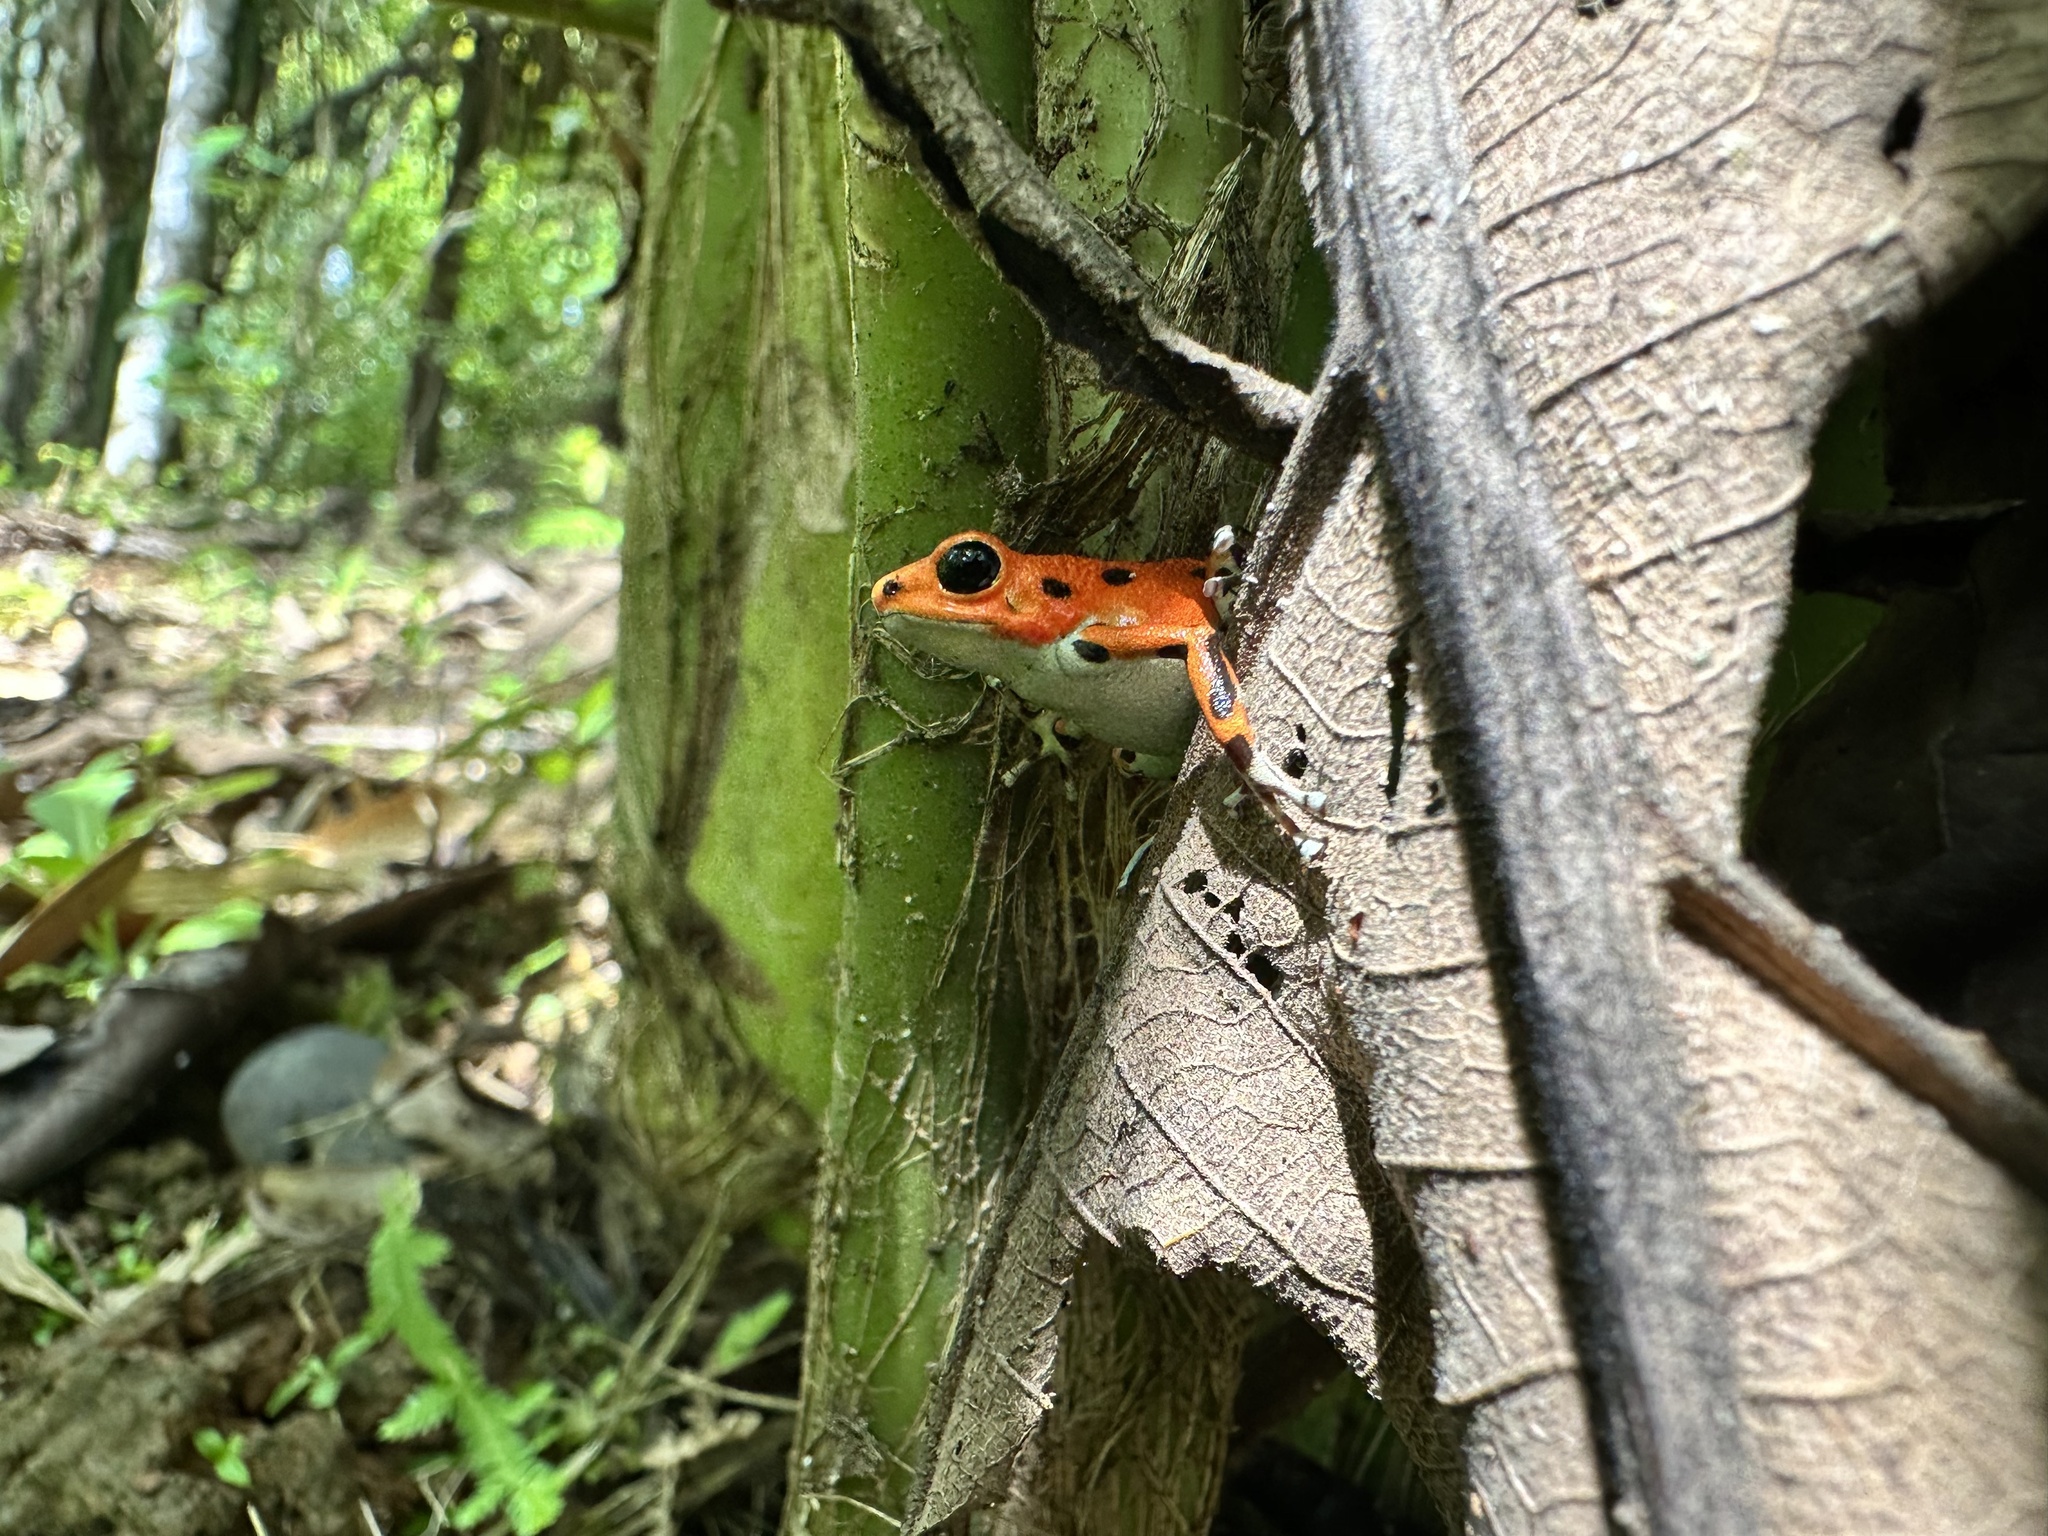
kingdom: Animalia
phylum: Chordata
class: Amphibia
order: Anura
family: Dendrobatidae
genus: Oophaga
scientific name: Oophaga pumilio
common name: Flaming poison frog
